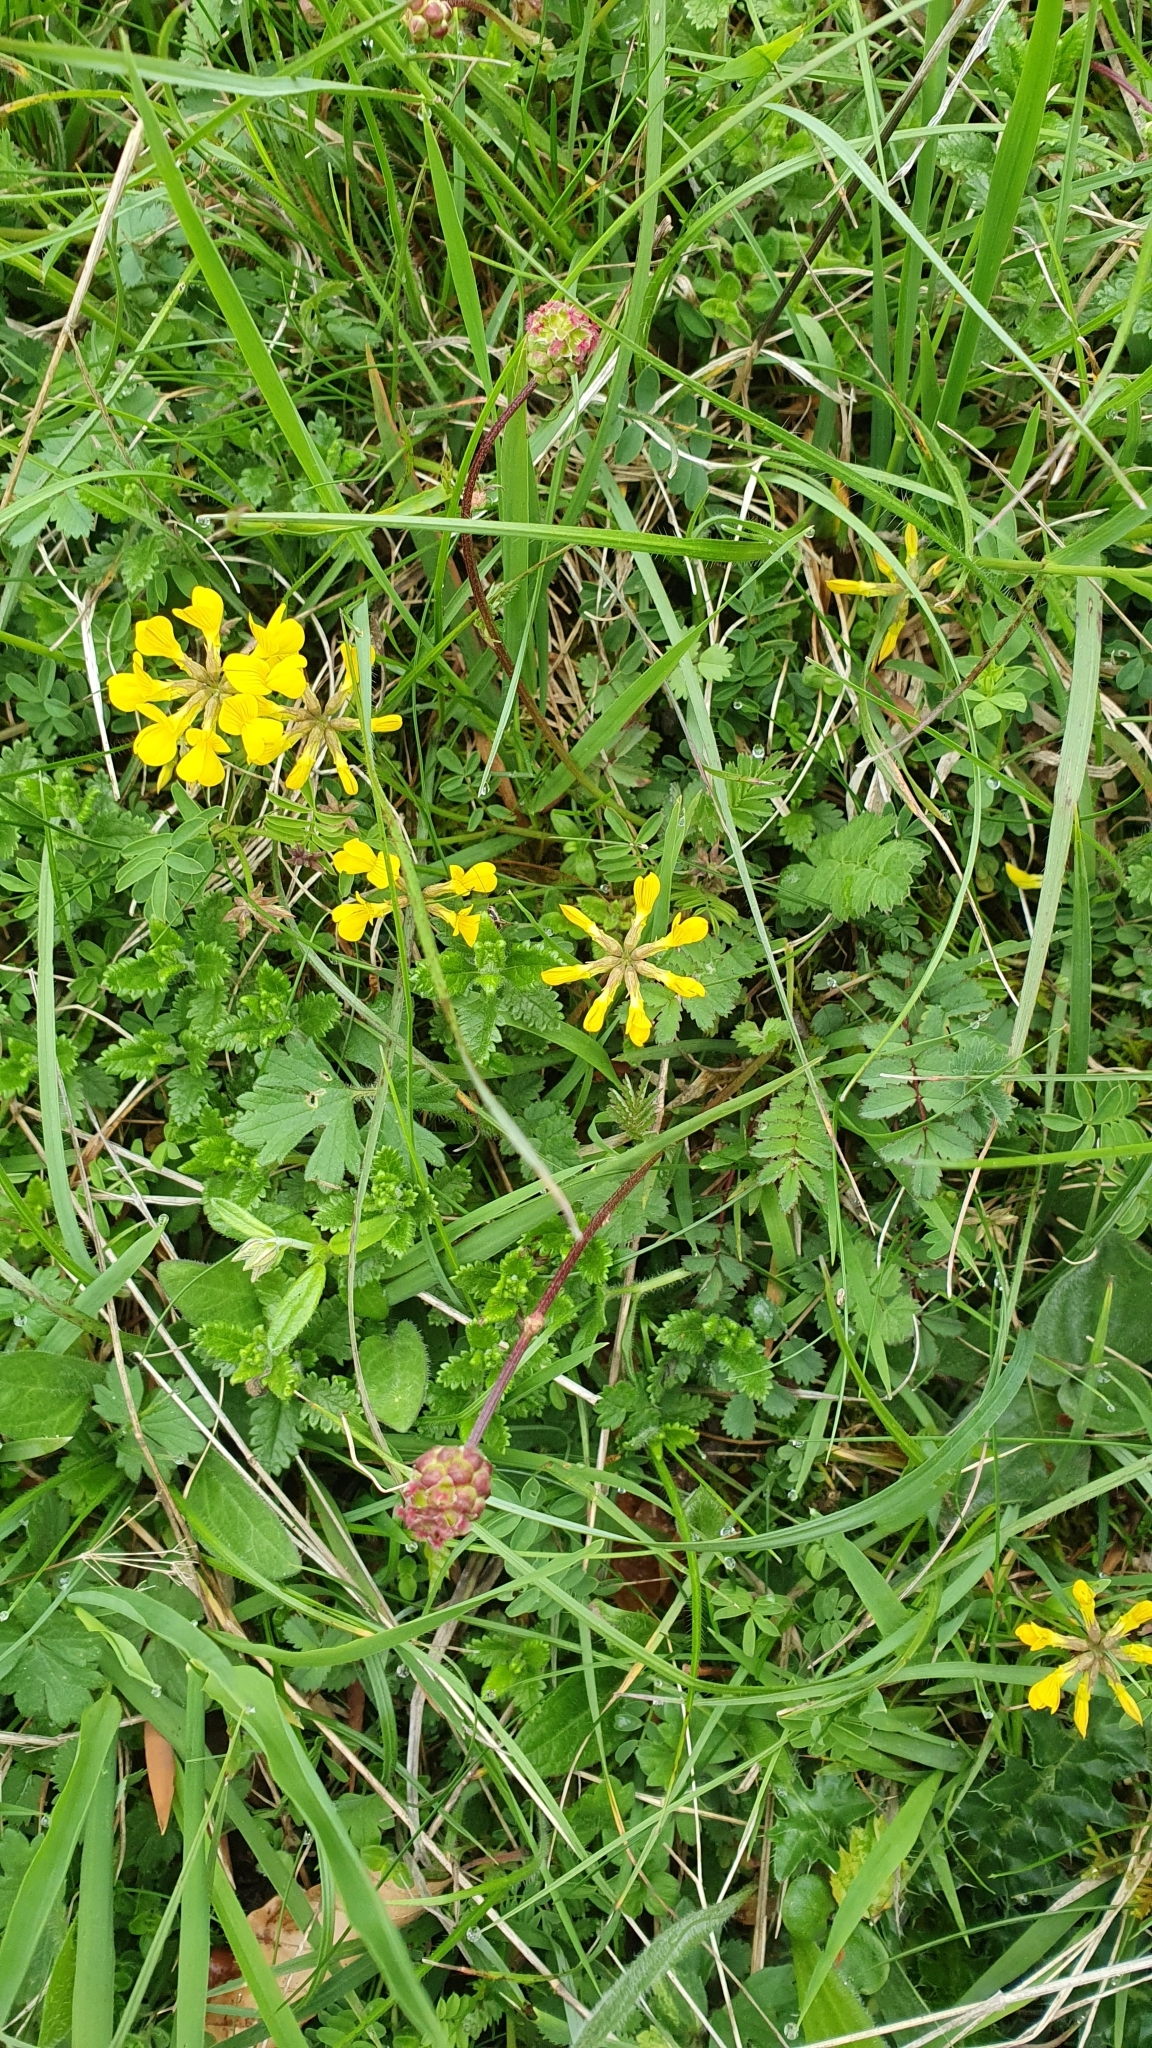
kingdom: Plantae
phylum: Tracheophyta
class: Magnoliopsida
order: Fabales
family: Fabaceae
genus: Hippocrepis
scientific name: Hippocrepis comosa
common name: Horseshoe vetch
